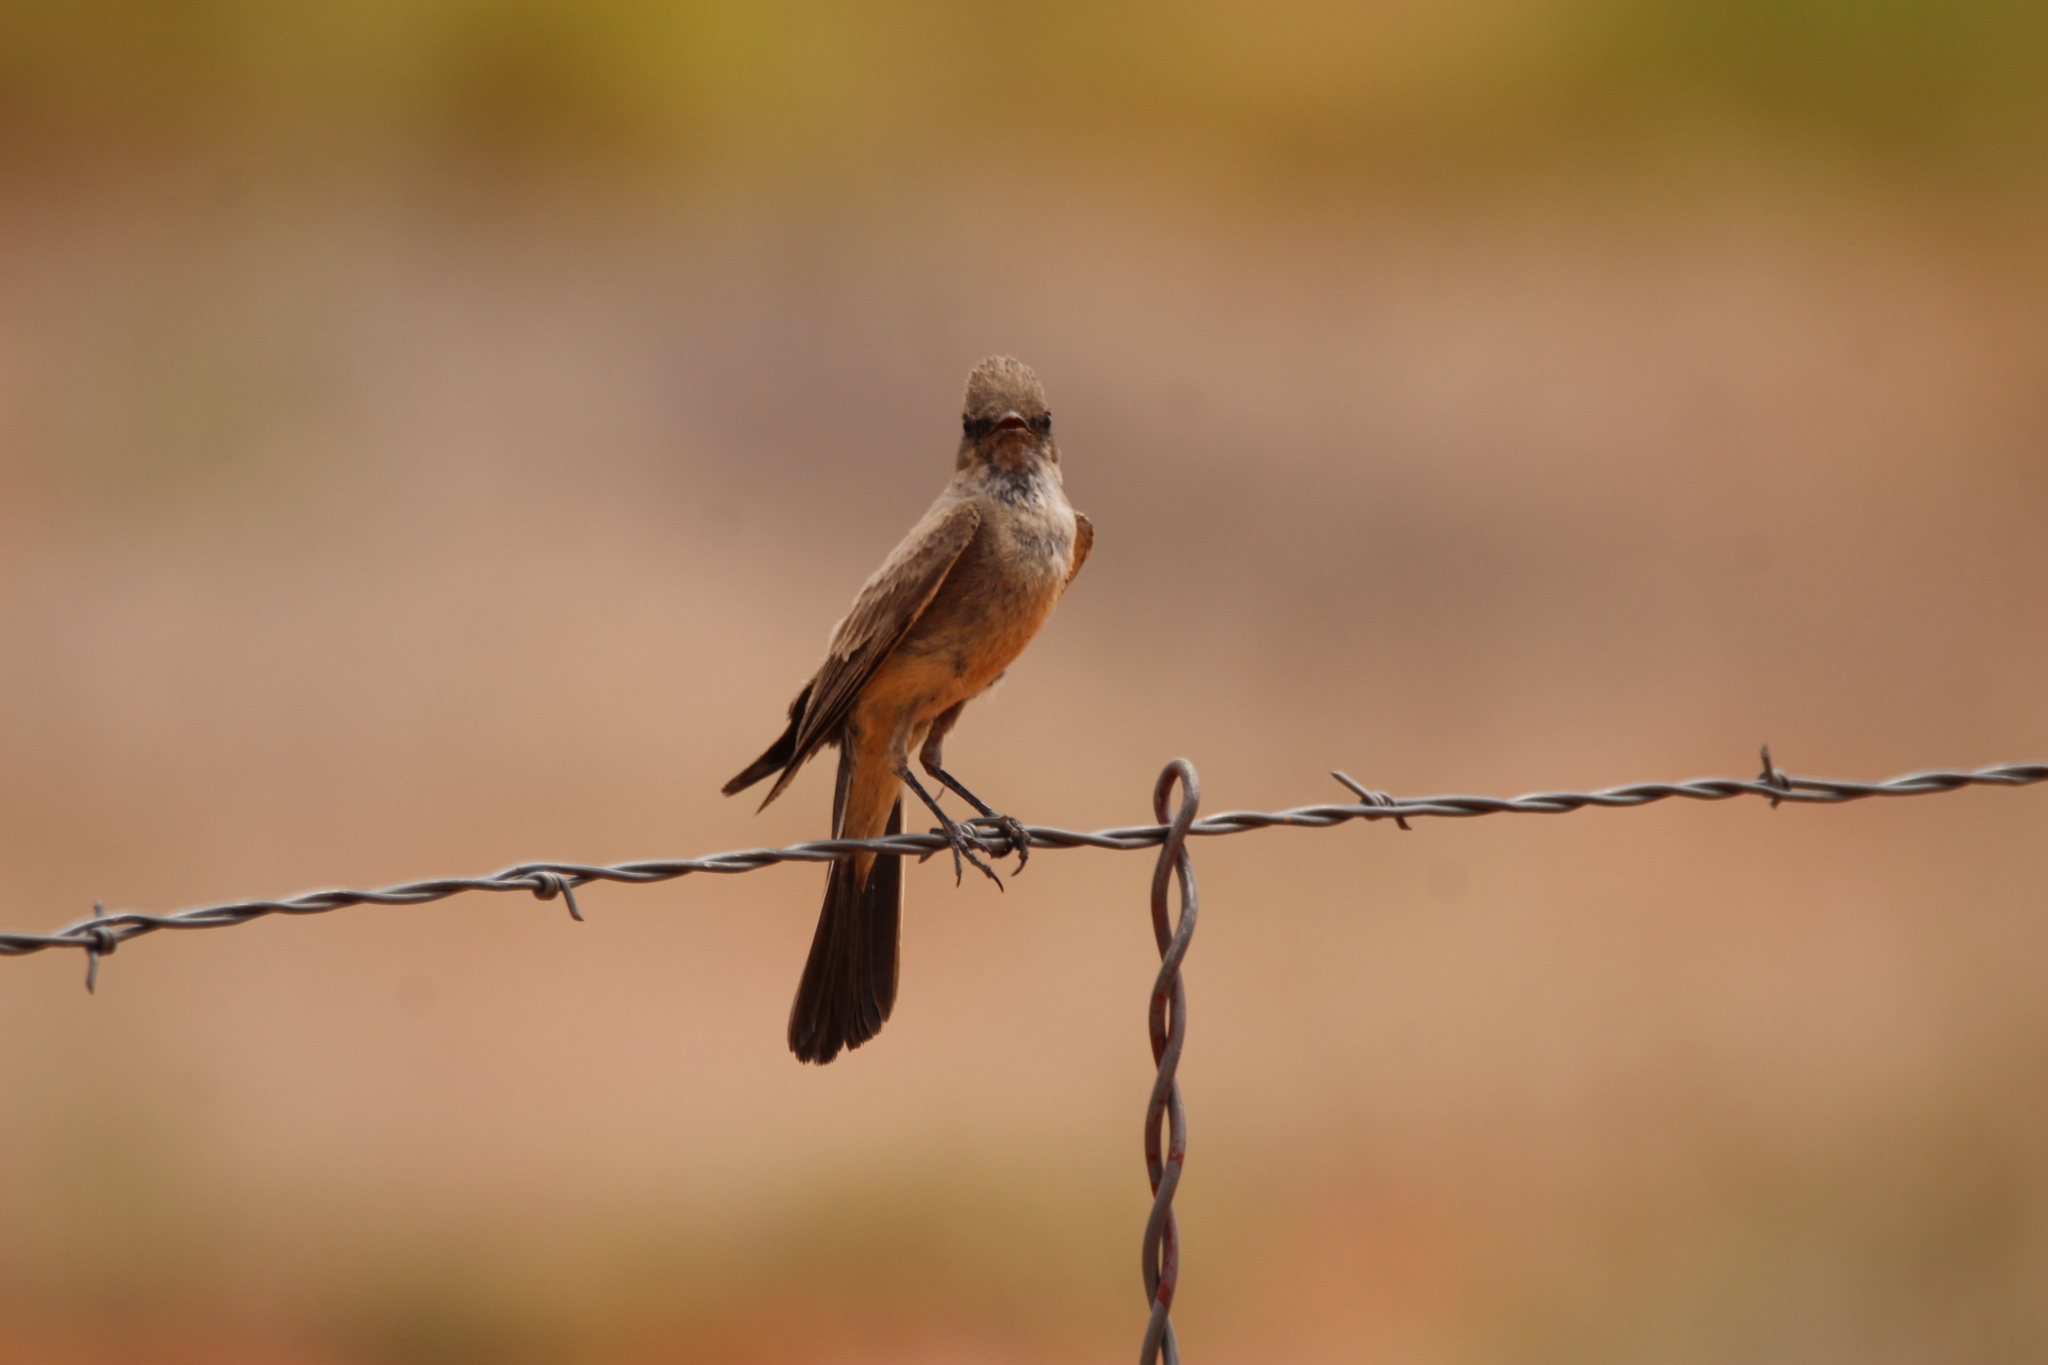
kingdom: Animalia
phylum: Chordata
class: Aves
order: Passeriformes
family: Tyrannidae
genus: Sayornis
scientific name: Sayornis saya
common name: Say's phoebe
